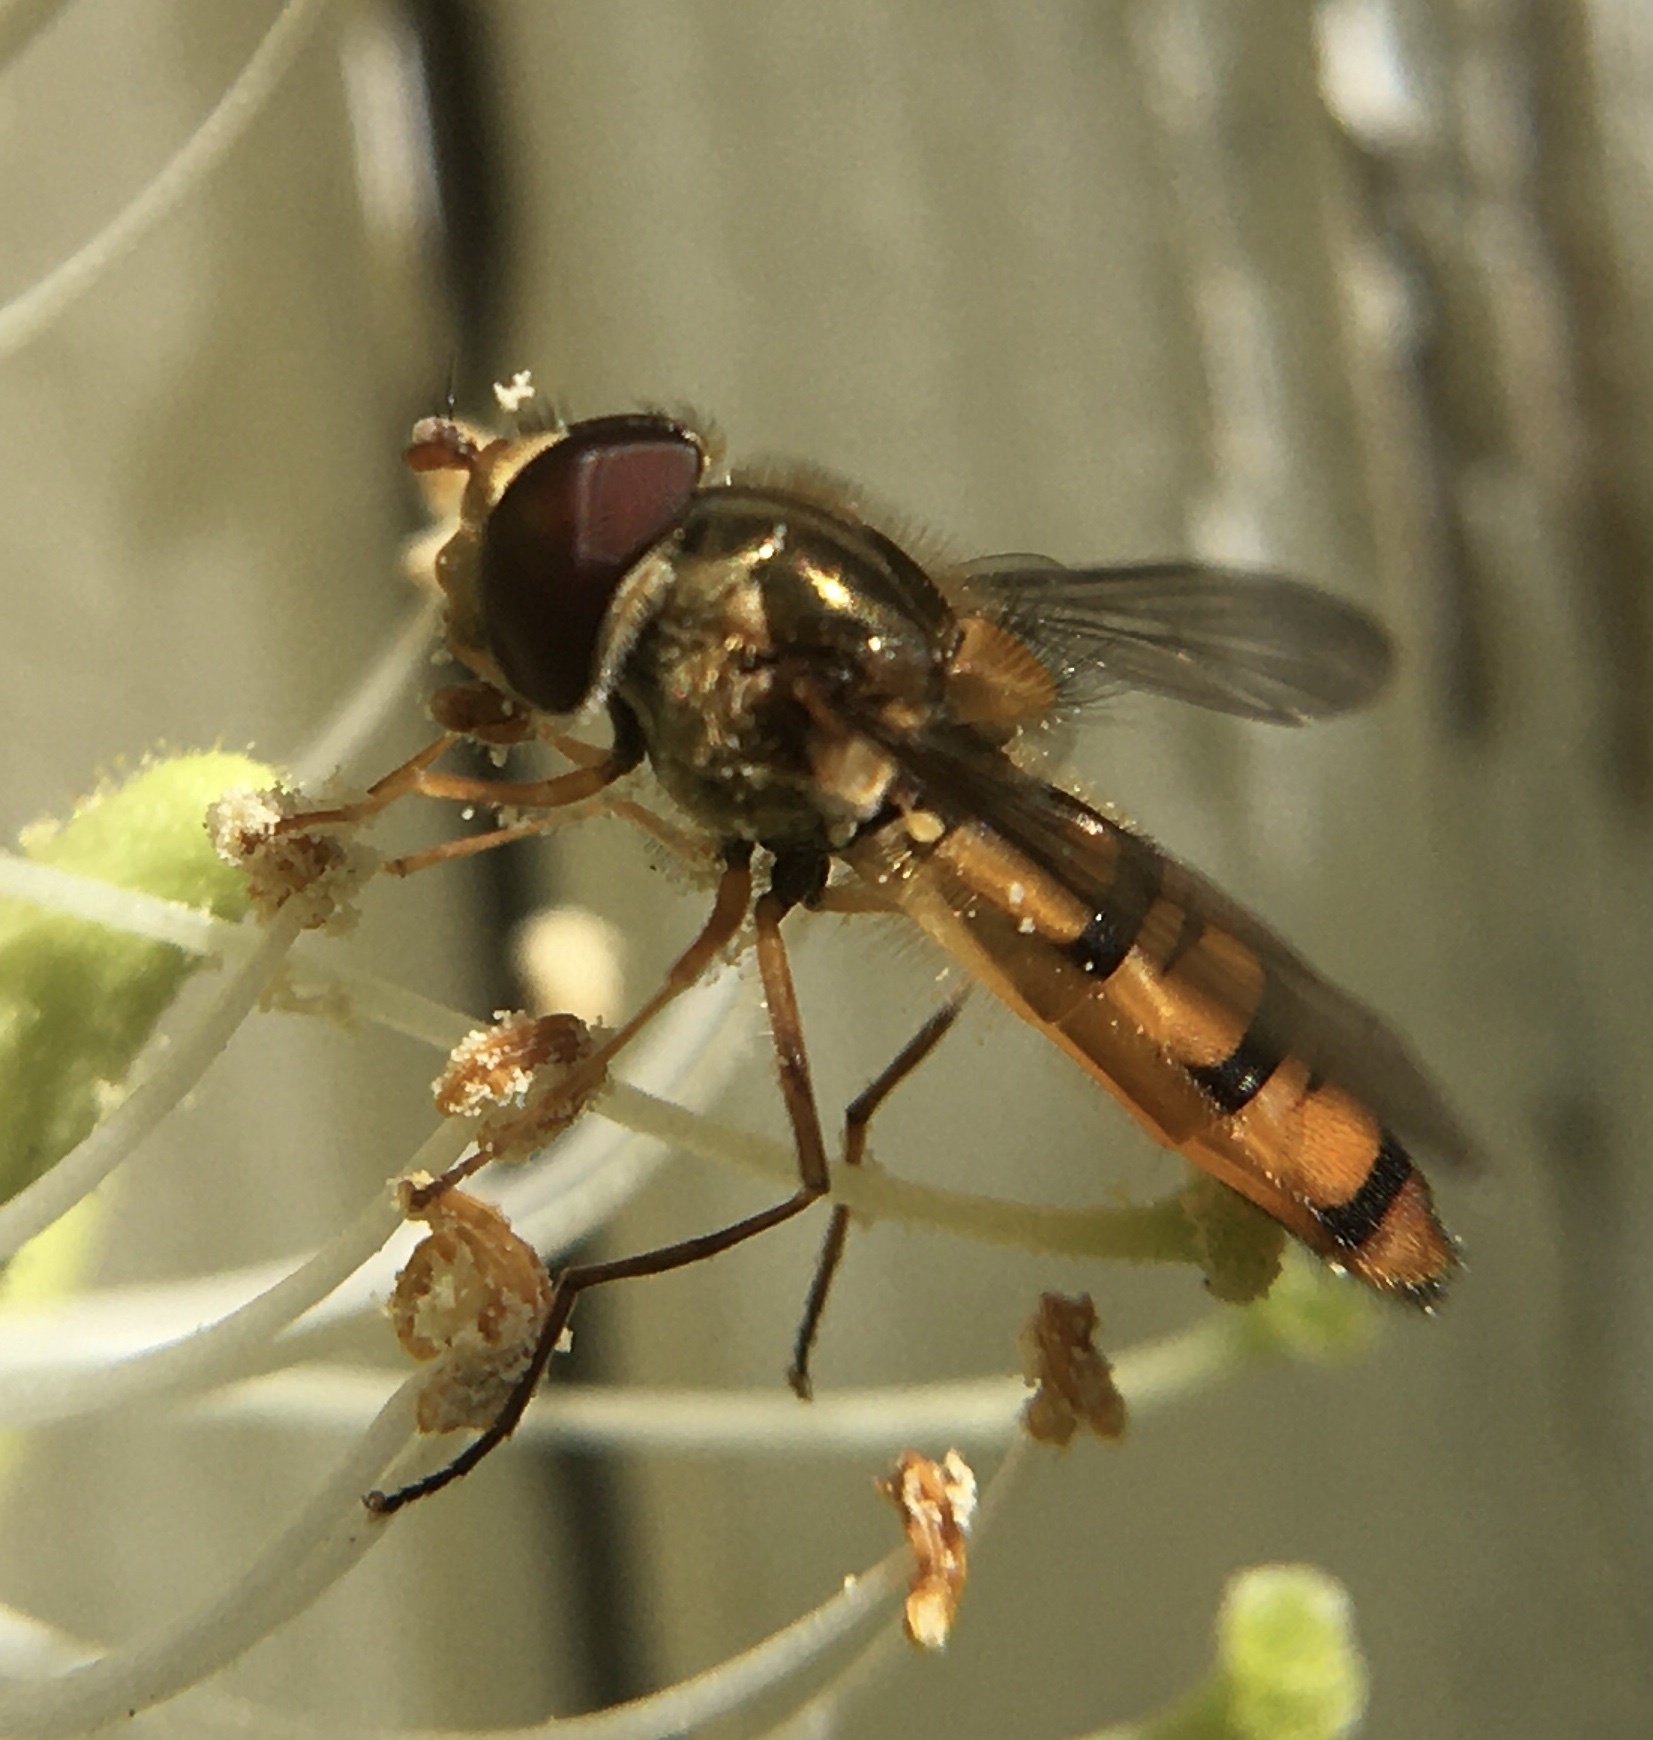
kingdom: Animalia
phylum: Arthropoda
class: Insecta
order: Diptera
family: Syrphidae
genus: Episyrphus
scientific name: Episyrphus balteatus
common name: Marmalade hoverfly
